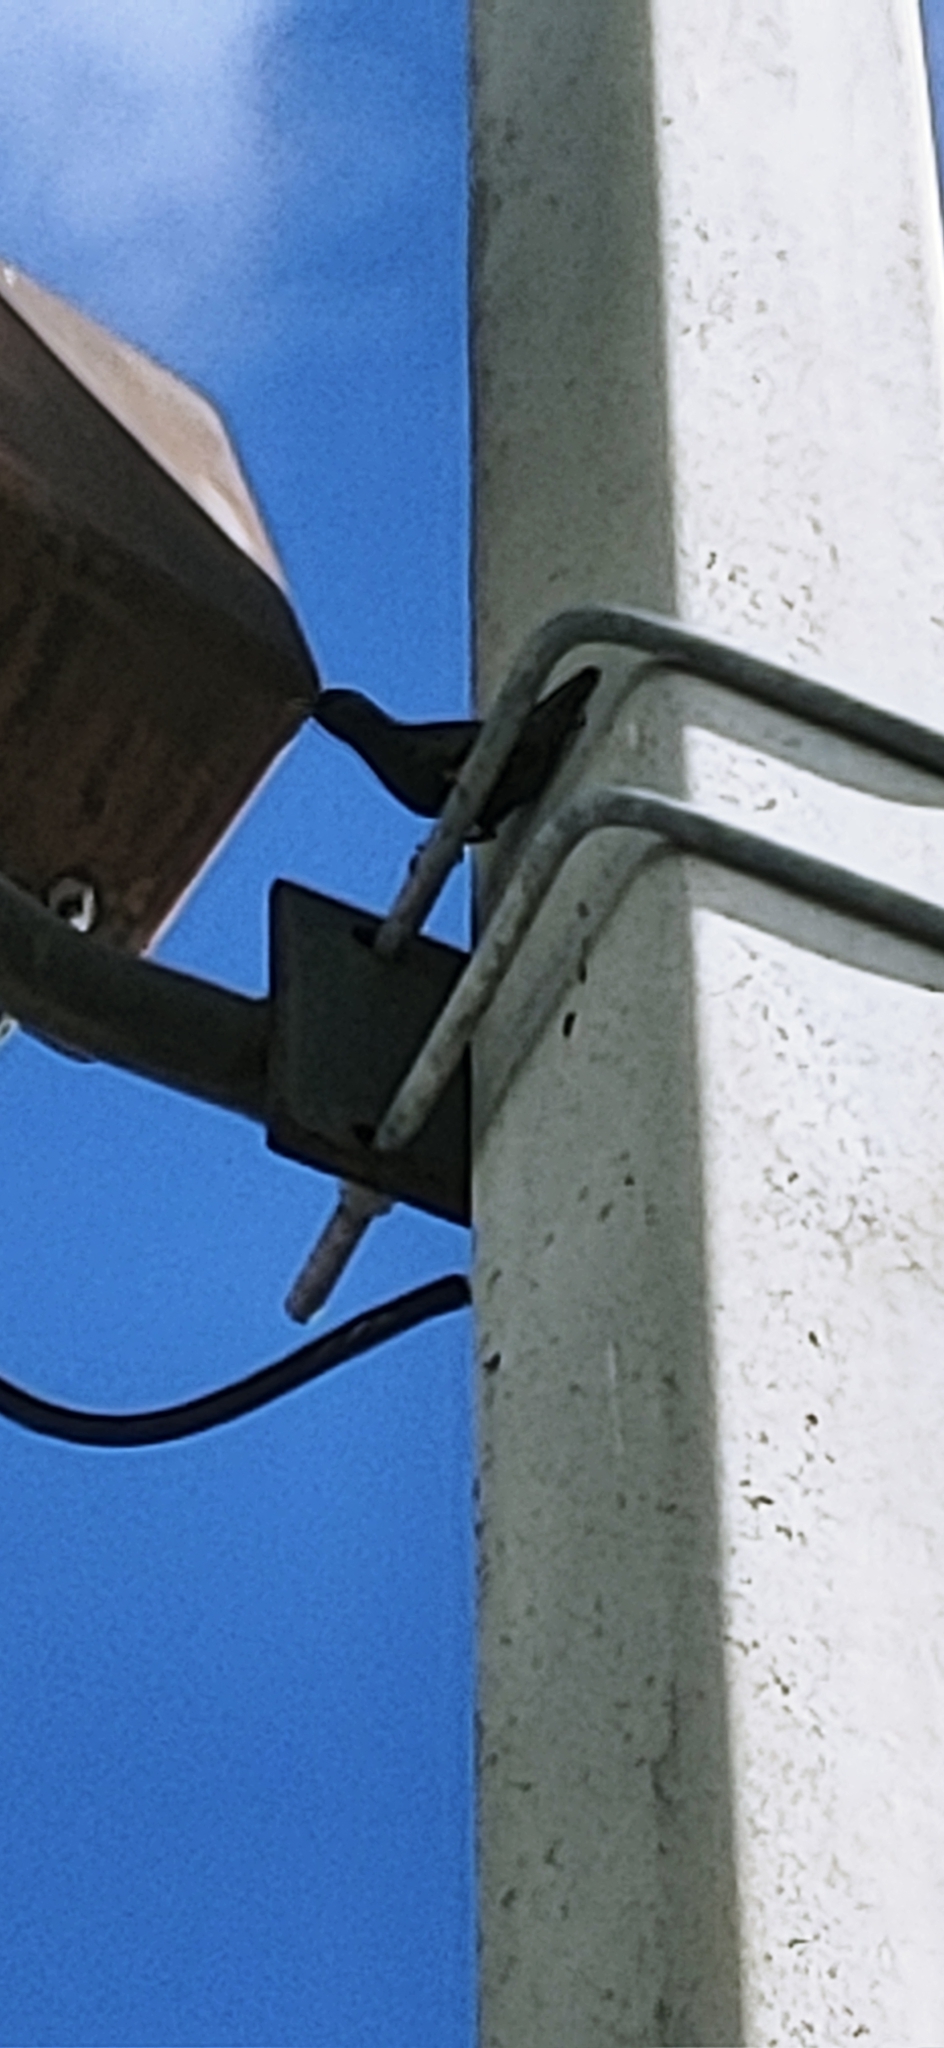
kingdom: Animalia
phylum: Chordata
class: Aves
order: Passeriformes
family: Sturnidae
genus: Sturnus
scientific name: Sturnus vulgaris
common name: Common starling
